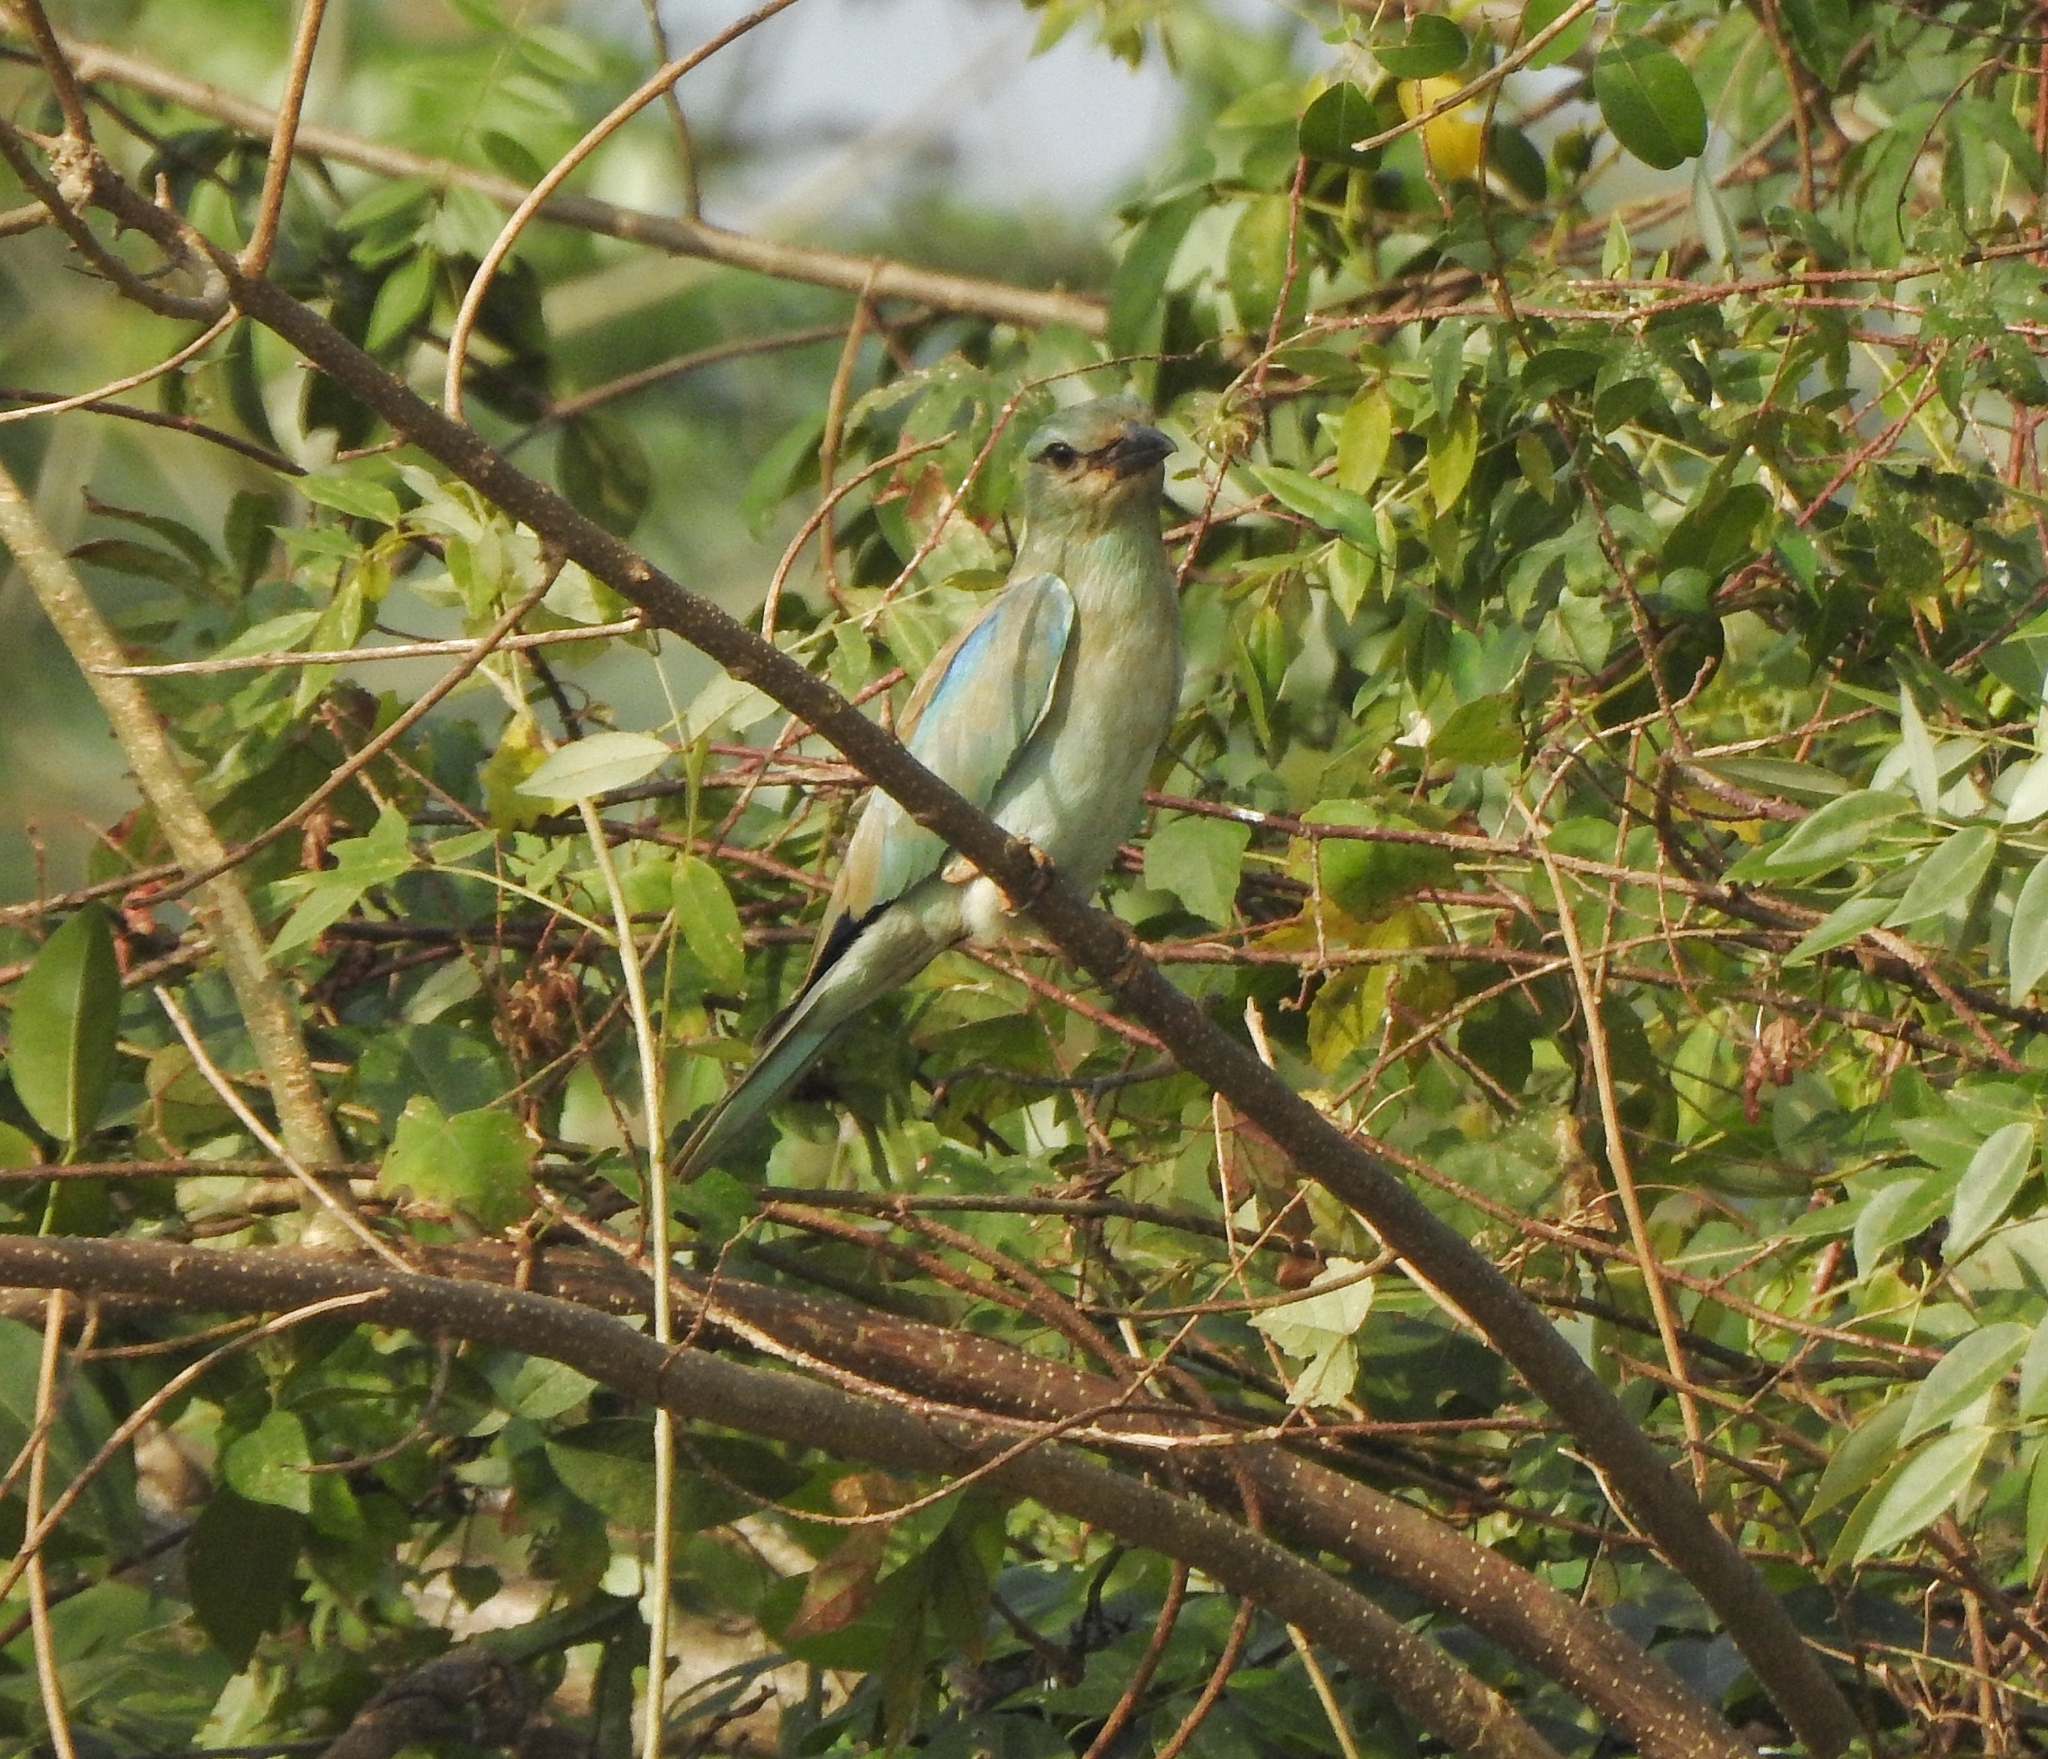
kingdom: Animalia
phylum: Chordata
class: Aves
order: Coraciiformes
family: Coraciidae
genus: Coracias
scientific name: Coracias garrulus
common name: European roller
